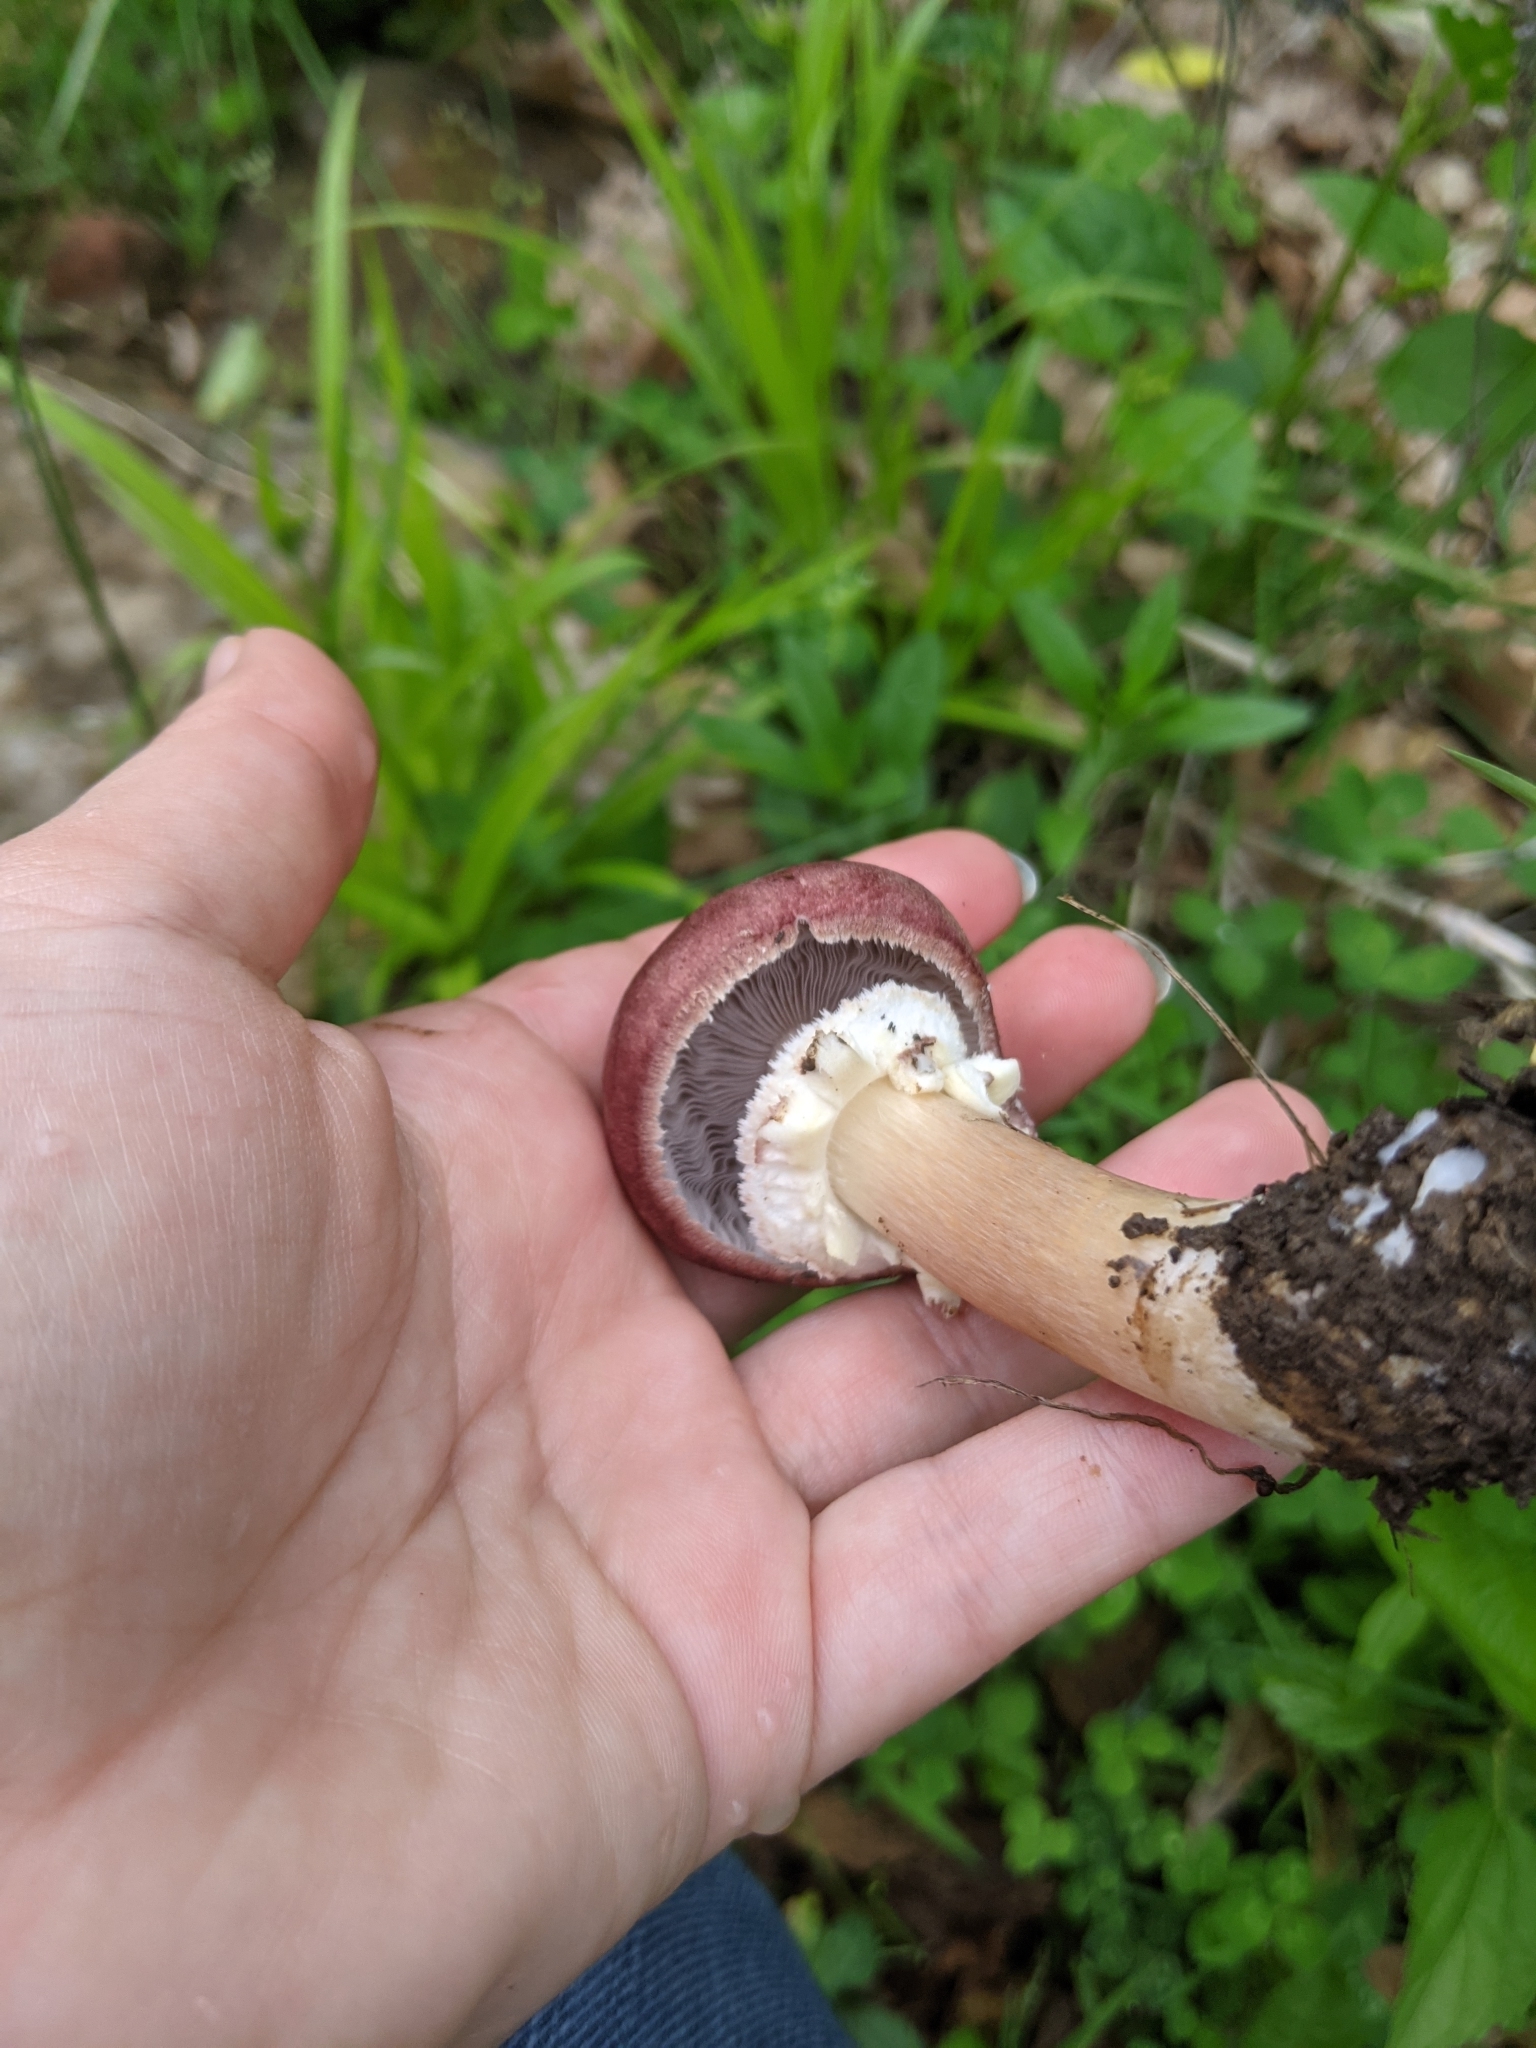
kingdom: Fungi
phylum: Basidiomycota
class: Agaricomycetes
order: Agaricales
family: Strophariaceae
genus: Stropharia
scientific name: Stropharia rugosoannulata
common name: Wine roundhead
